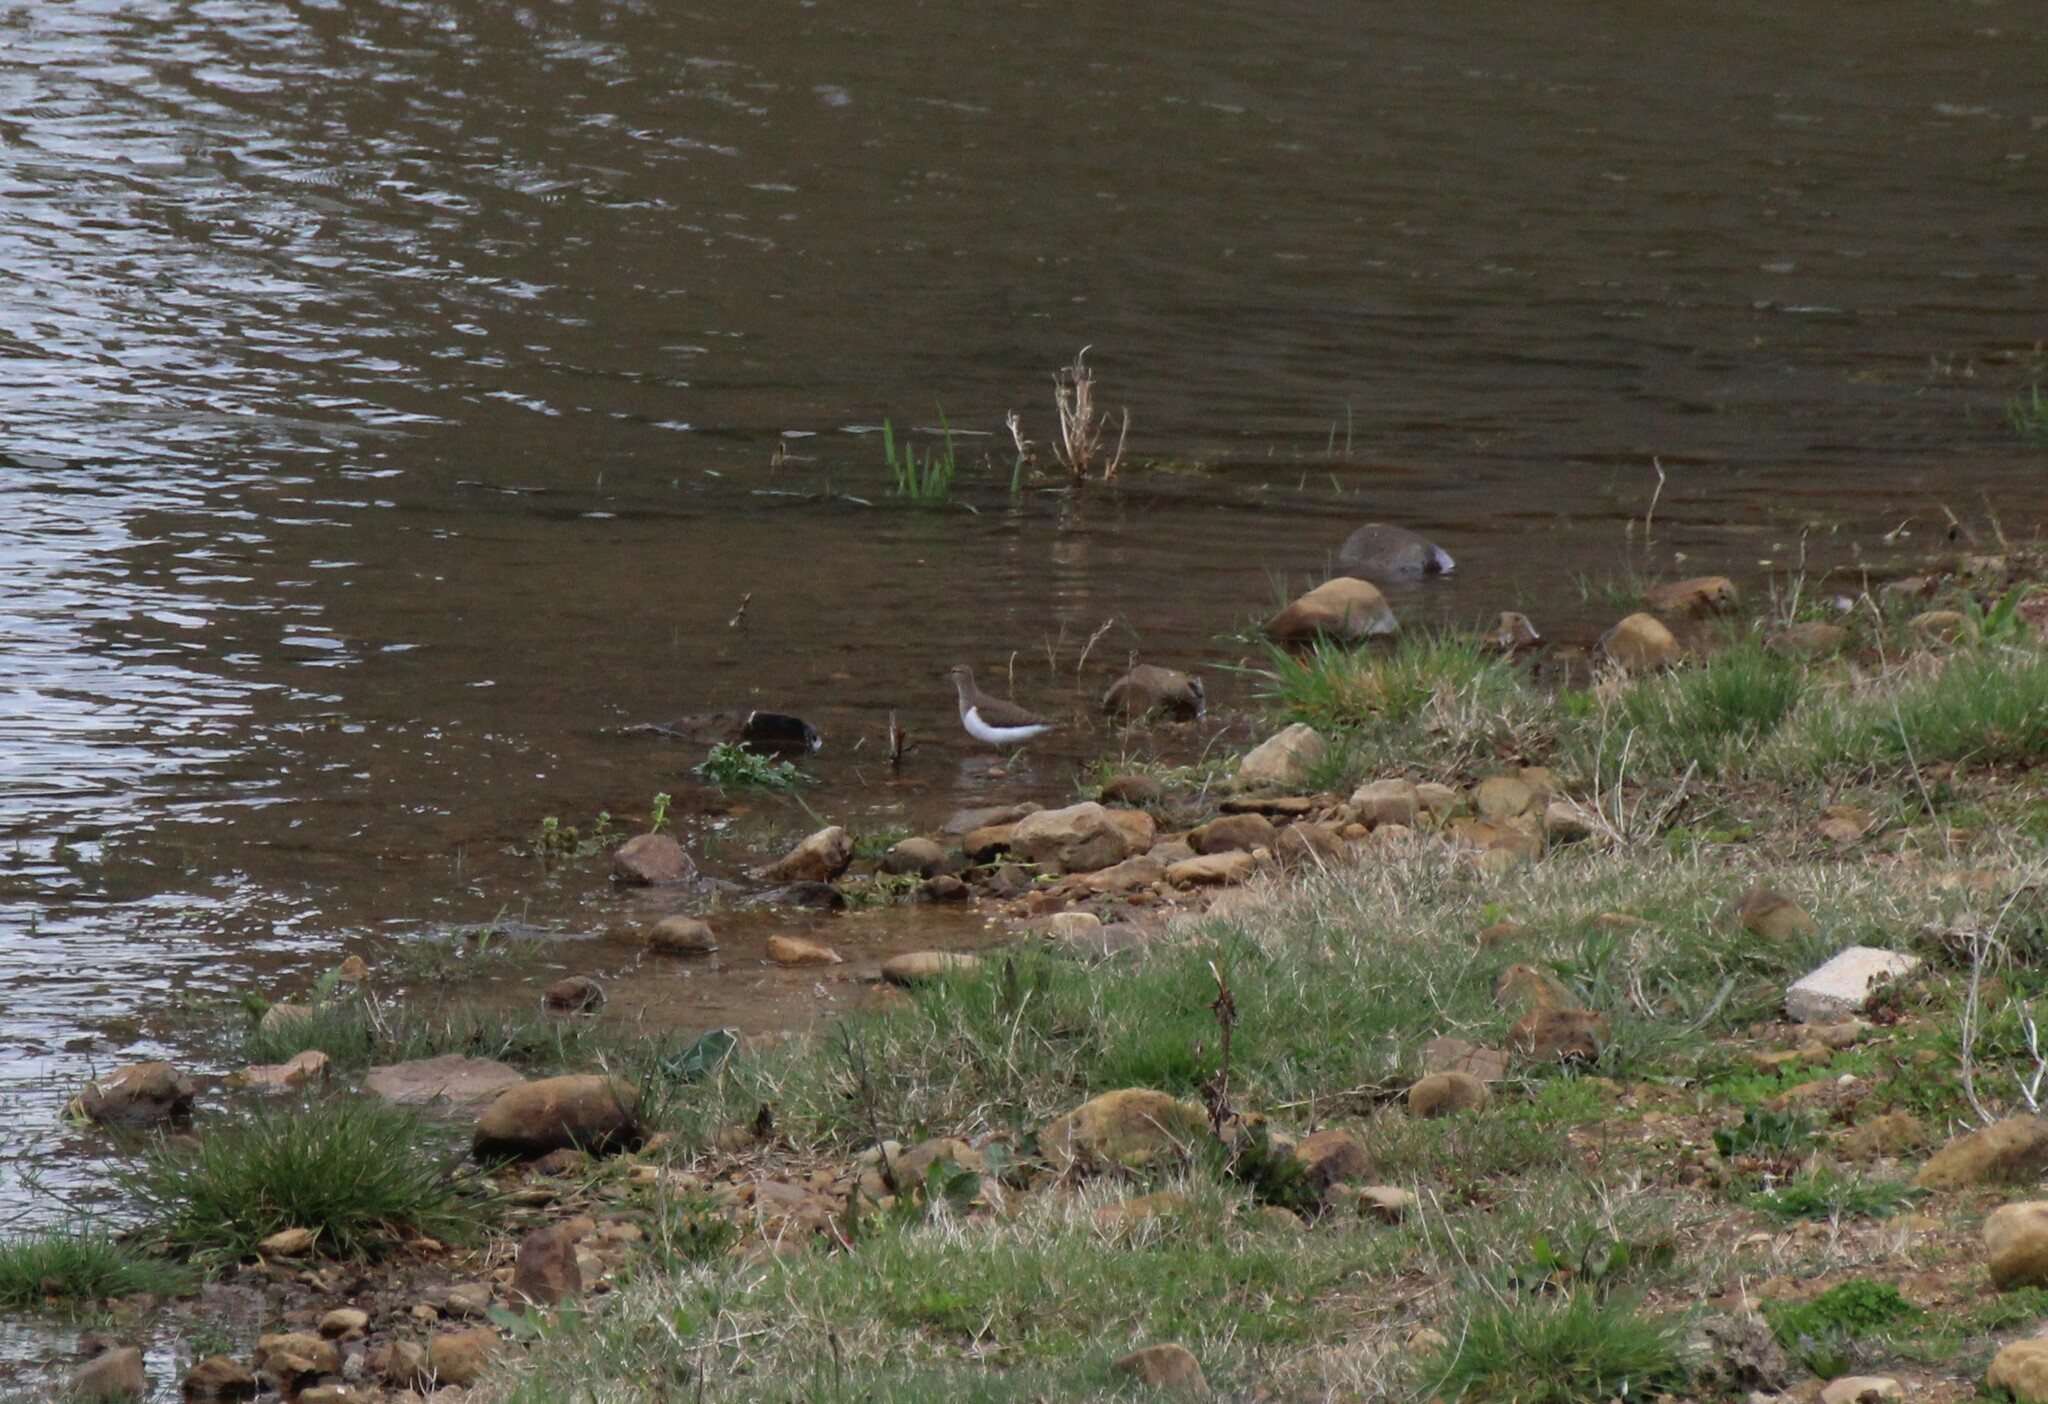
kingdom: Animalia
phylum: Chordata
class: Aves
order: Charadriiformes
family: Scolopacidae
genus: Actitis
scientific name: Actitis hypoleucos
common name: Common sandpiper
